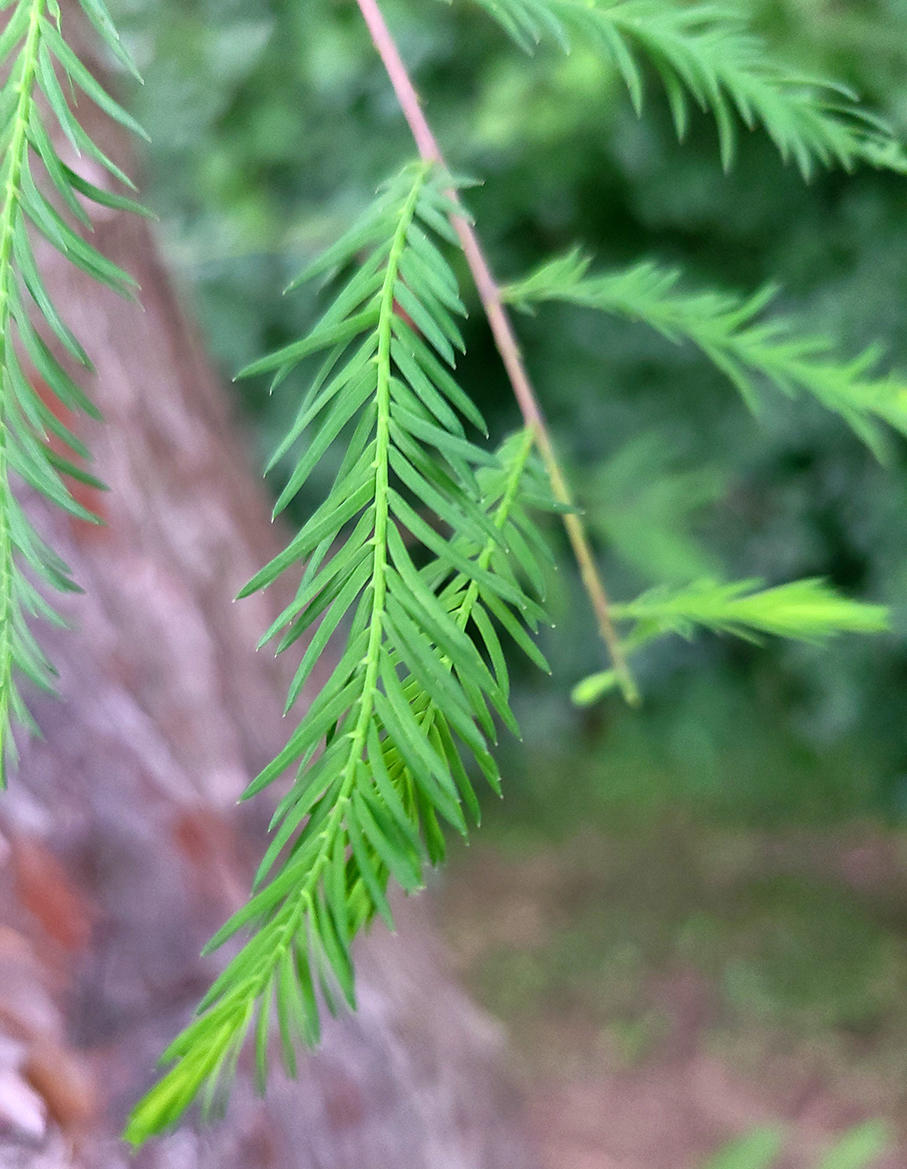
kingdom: Plantae
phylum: Tracheophyta
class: Pinopsida
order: Pinales
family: Cupressaceae
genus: Taxodium
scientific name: Taxodium distichum
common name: Bald cypress
